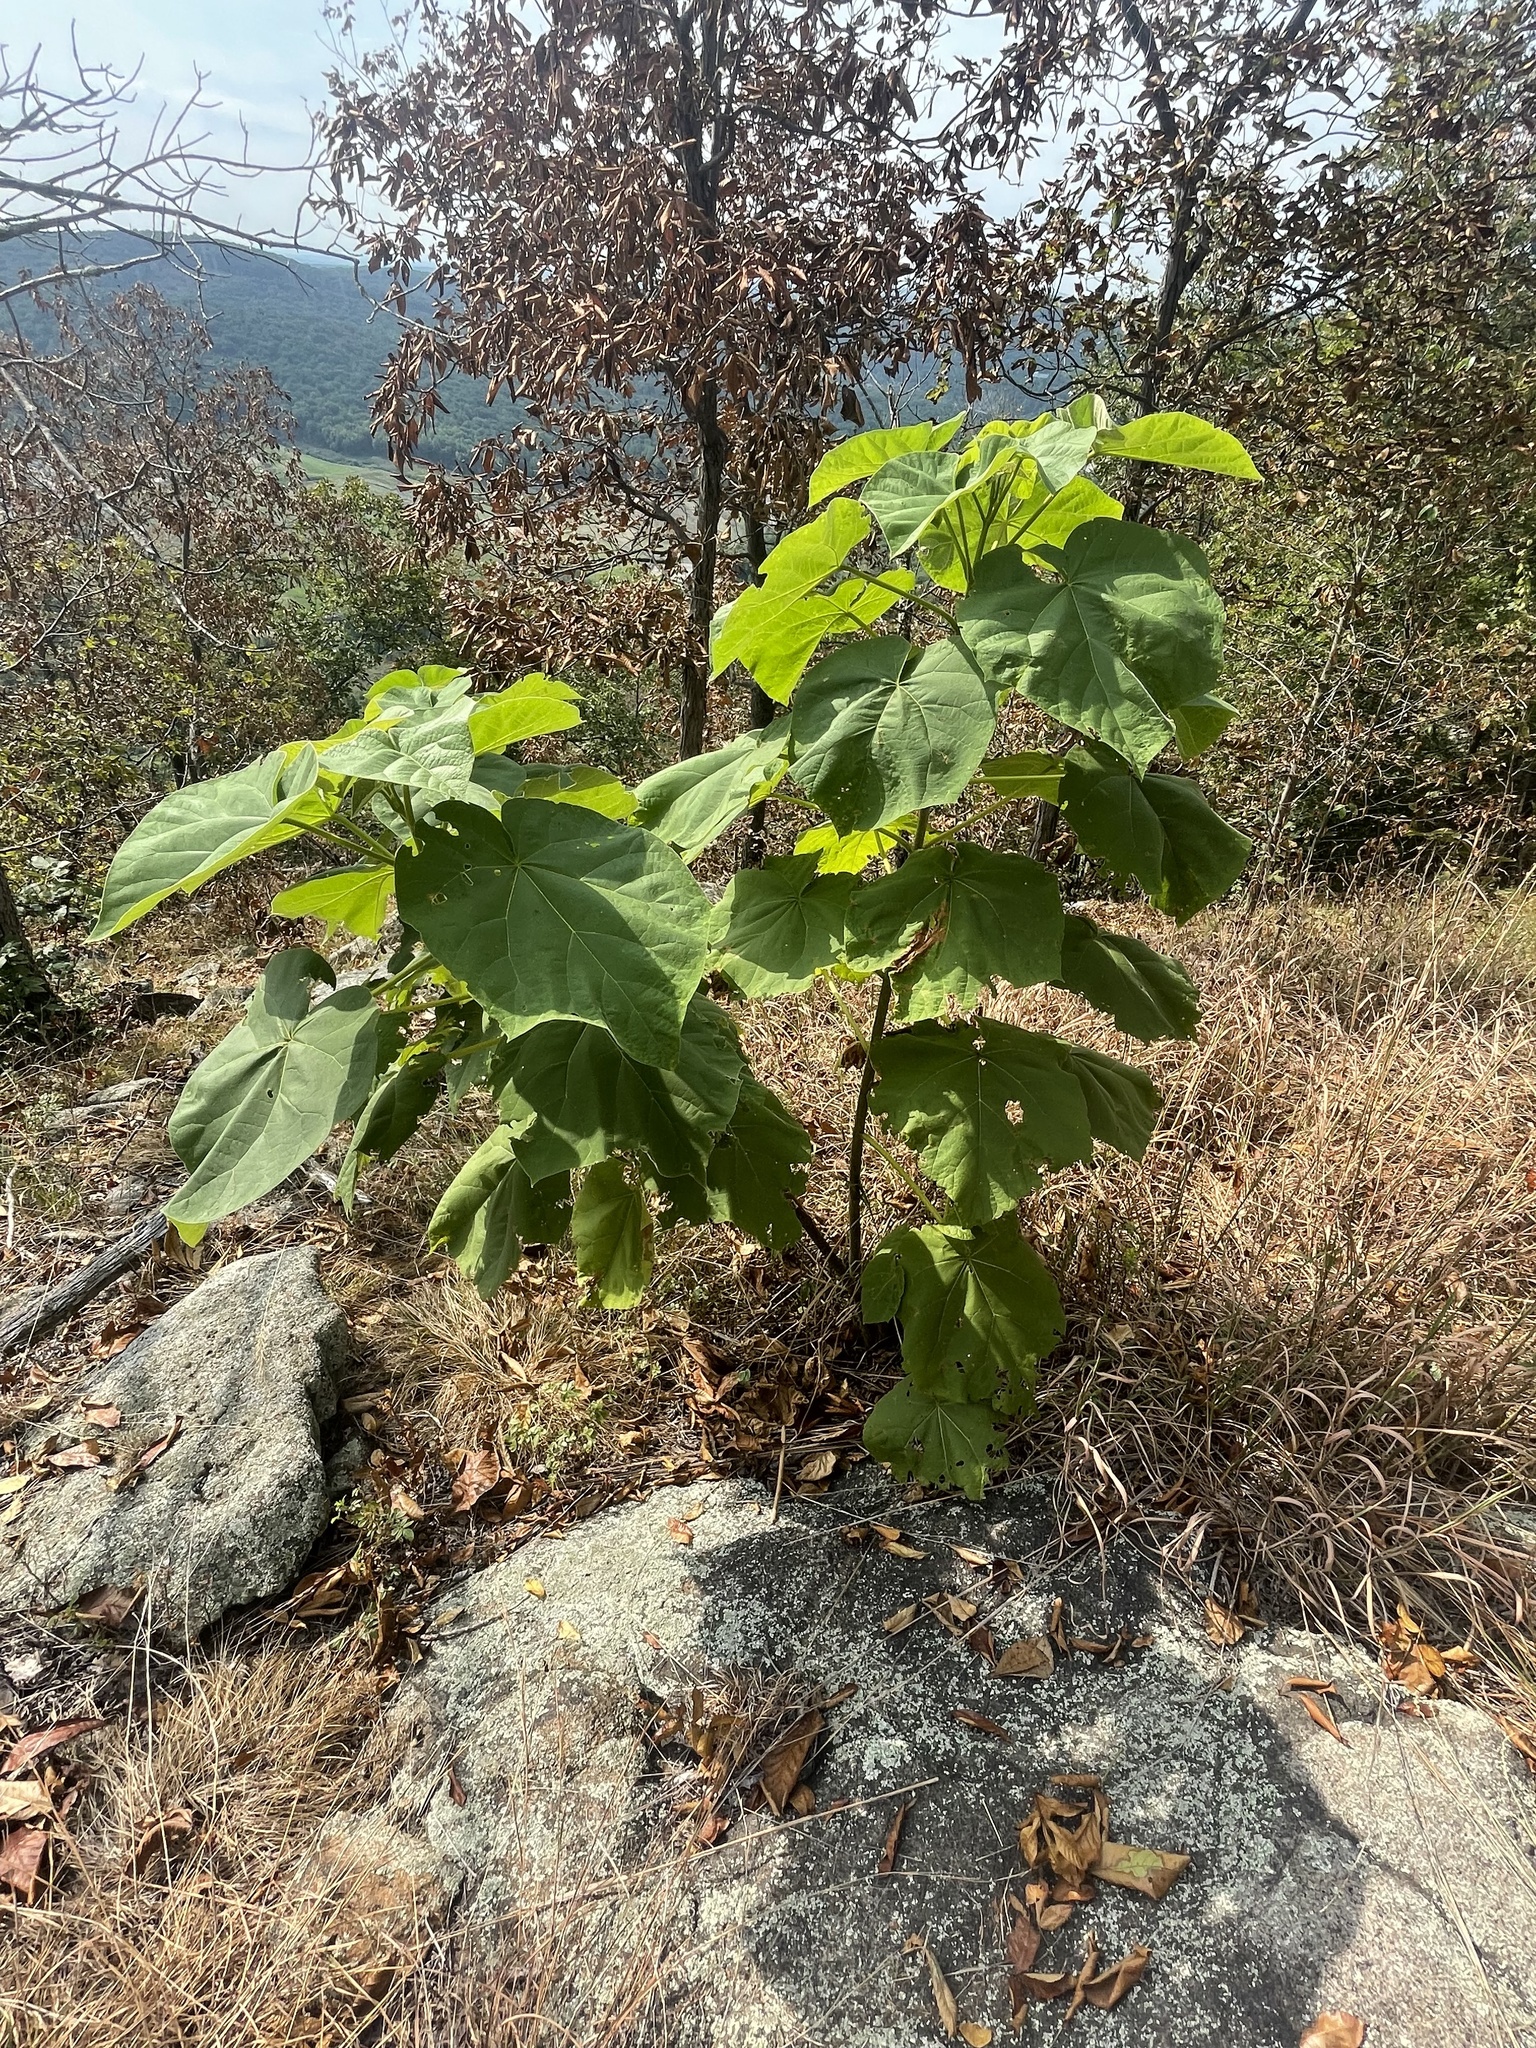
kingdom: Plantae
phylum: Tracheophyta
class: Magnoliopsida
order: Lamiales
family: Paulowniaceae
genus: Paulownia
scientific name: Paulownia tomentosa
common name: Foxglove-tree
